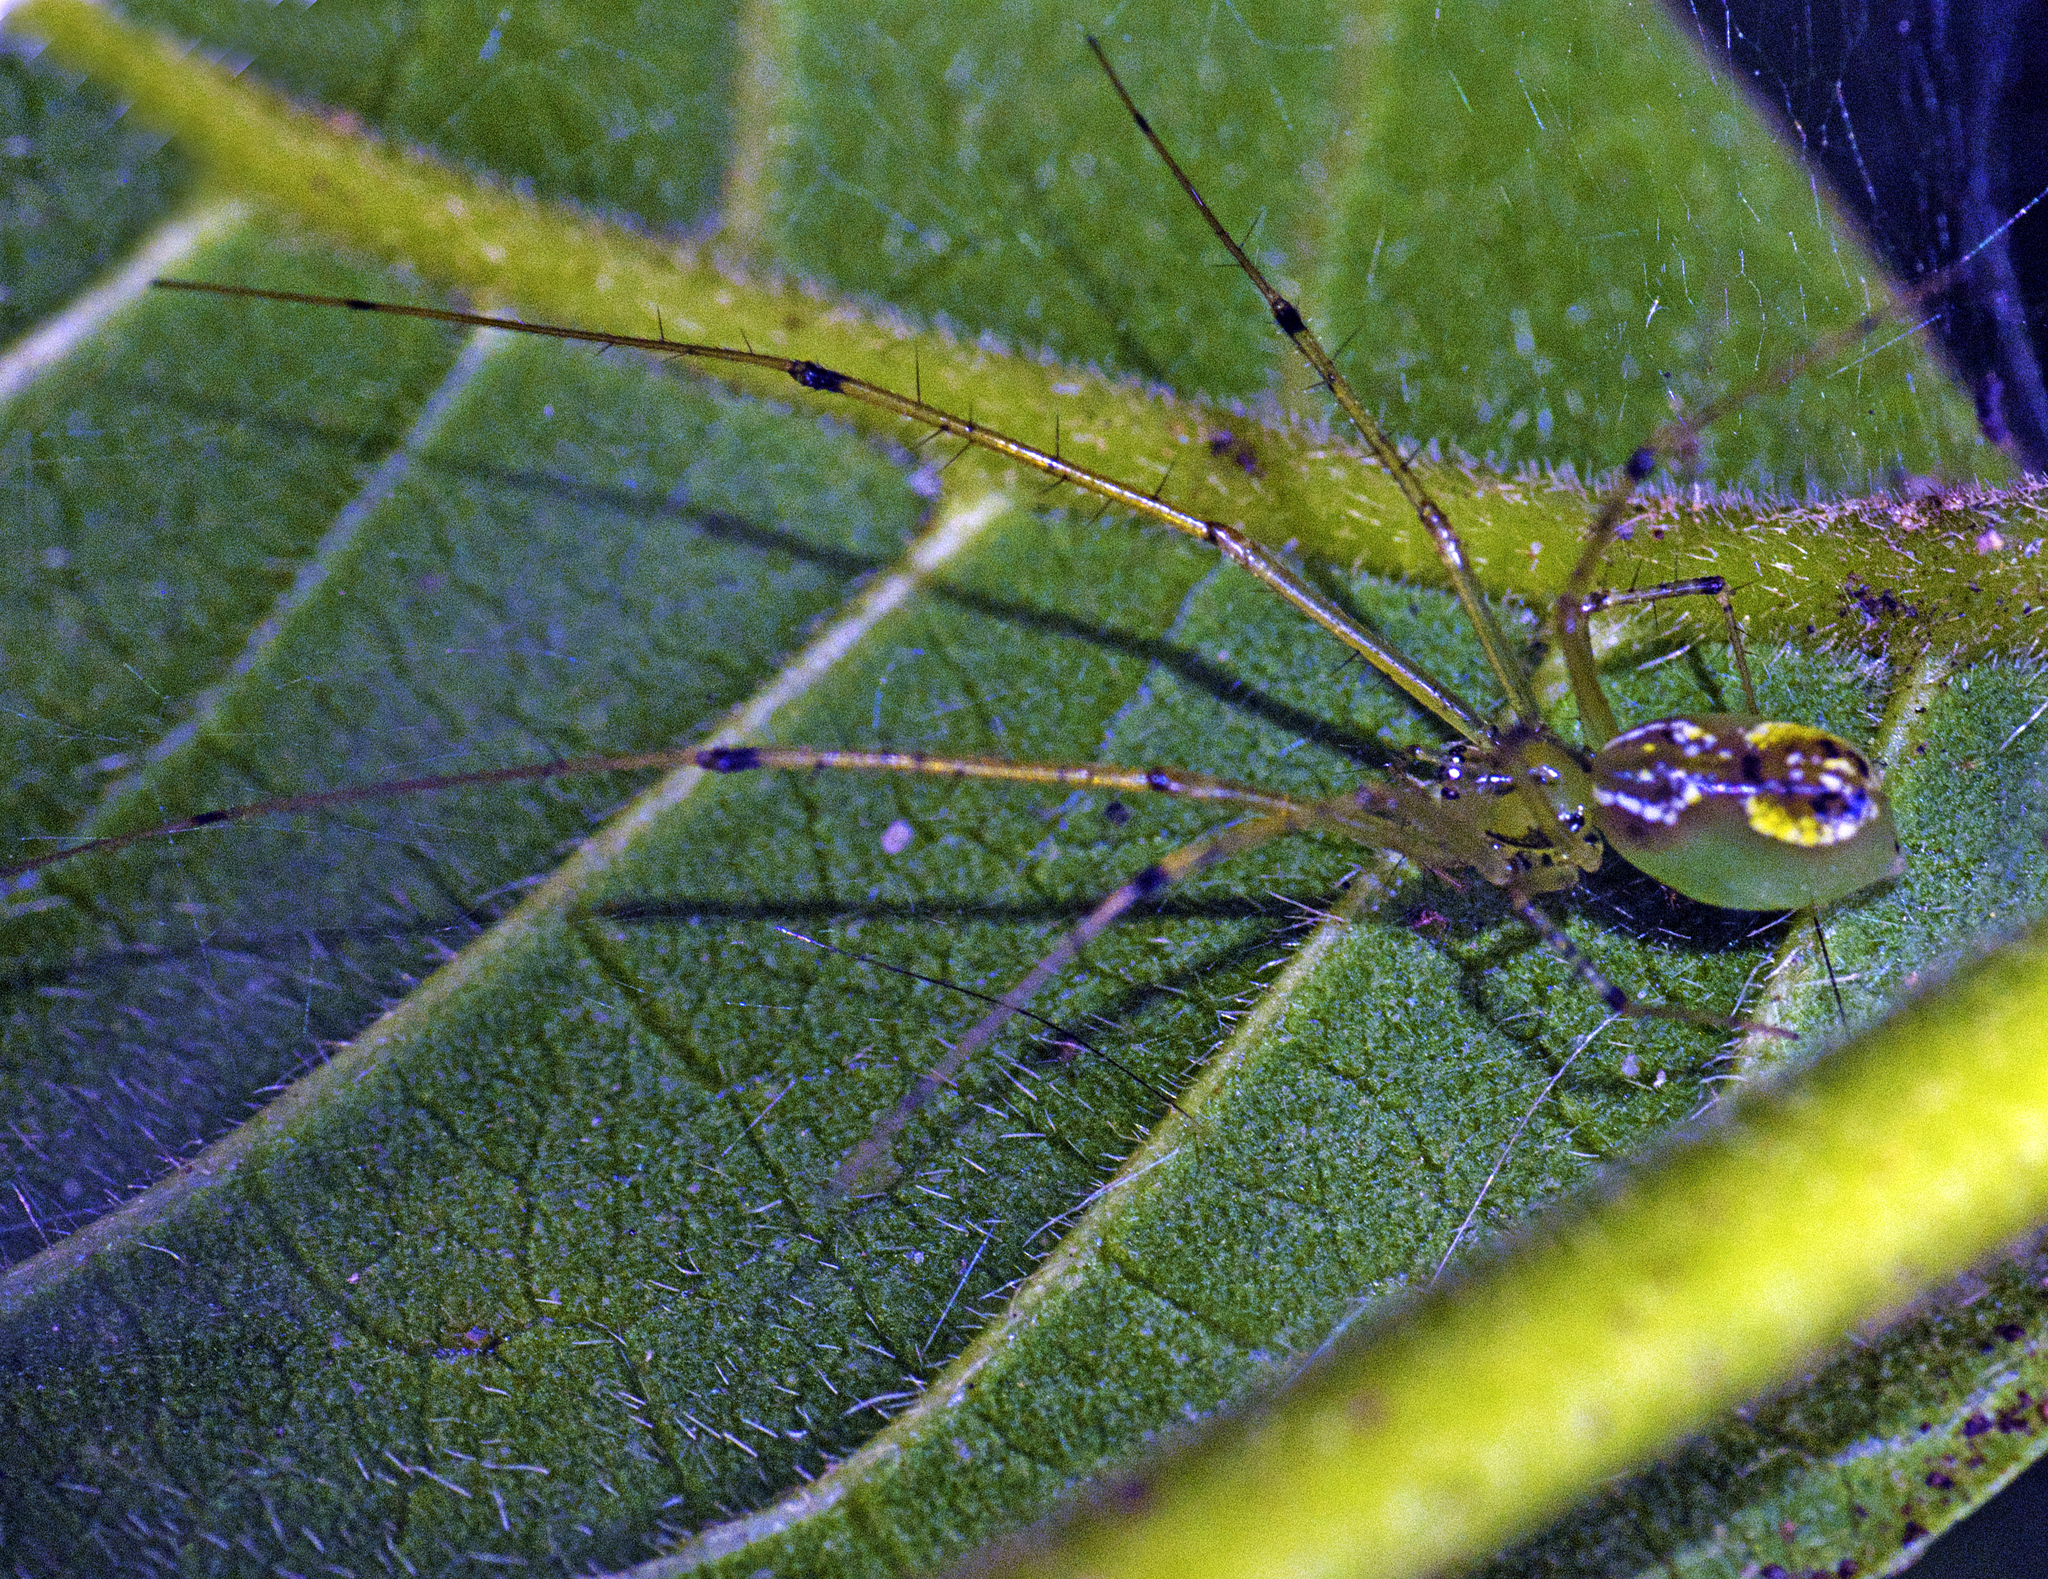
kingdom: Animalia
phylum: Arthropoda
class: Arachnida
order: Araneae
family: Linyphiidae
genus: Laetesia
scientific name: Laetesia raveni
